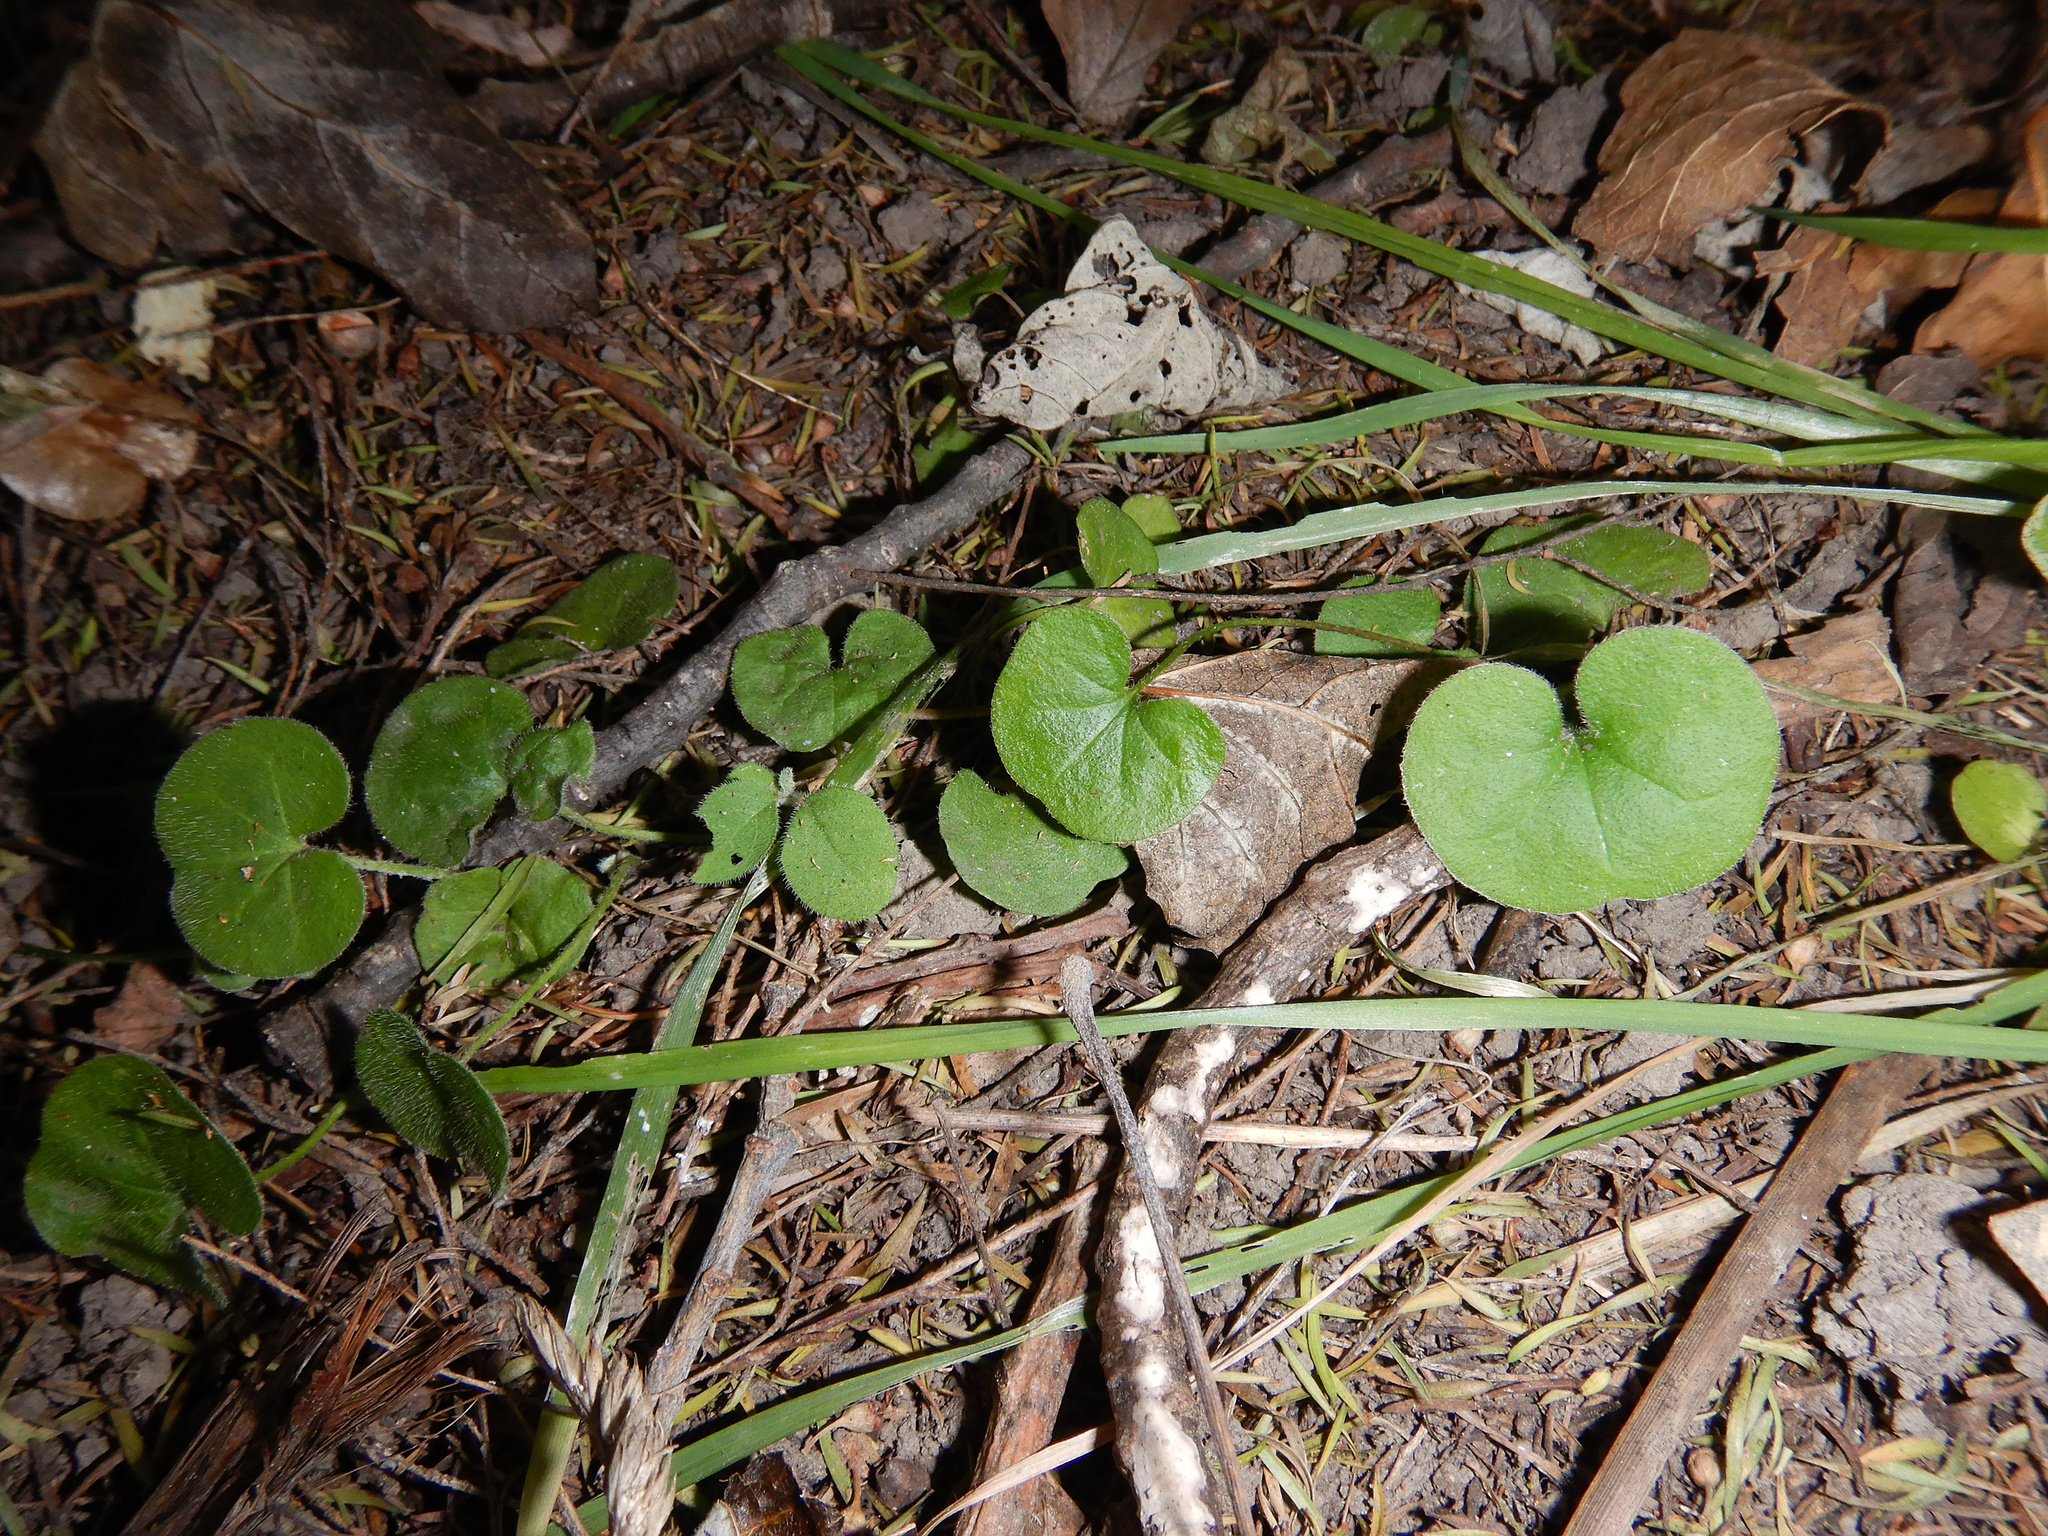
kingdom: Plantae
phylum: Tracheophyta
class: Magnoliopsida
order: Solanales
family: Convolvulaceae
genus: Dichondra
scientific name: Dichondra repens
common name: Kidneyweed
